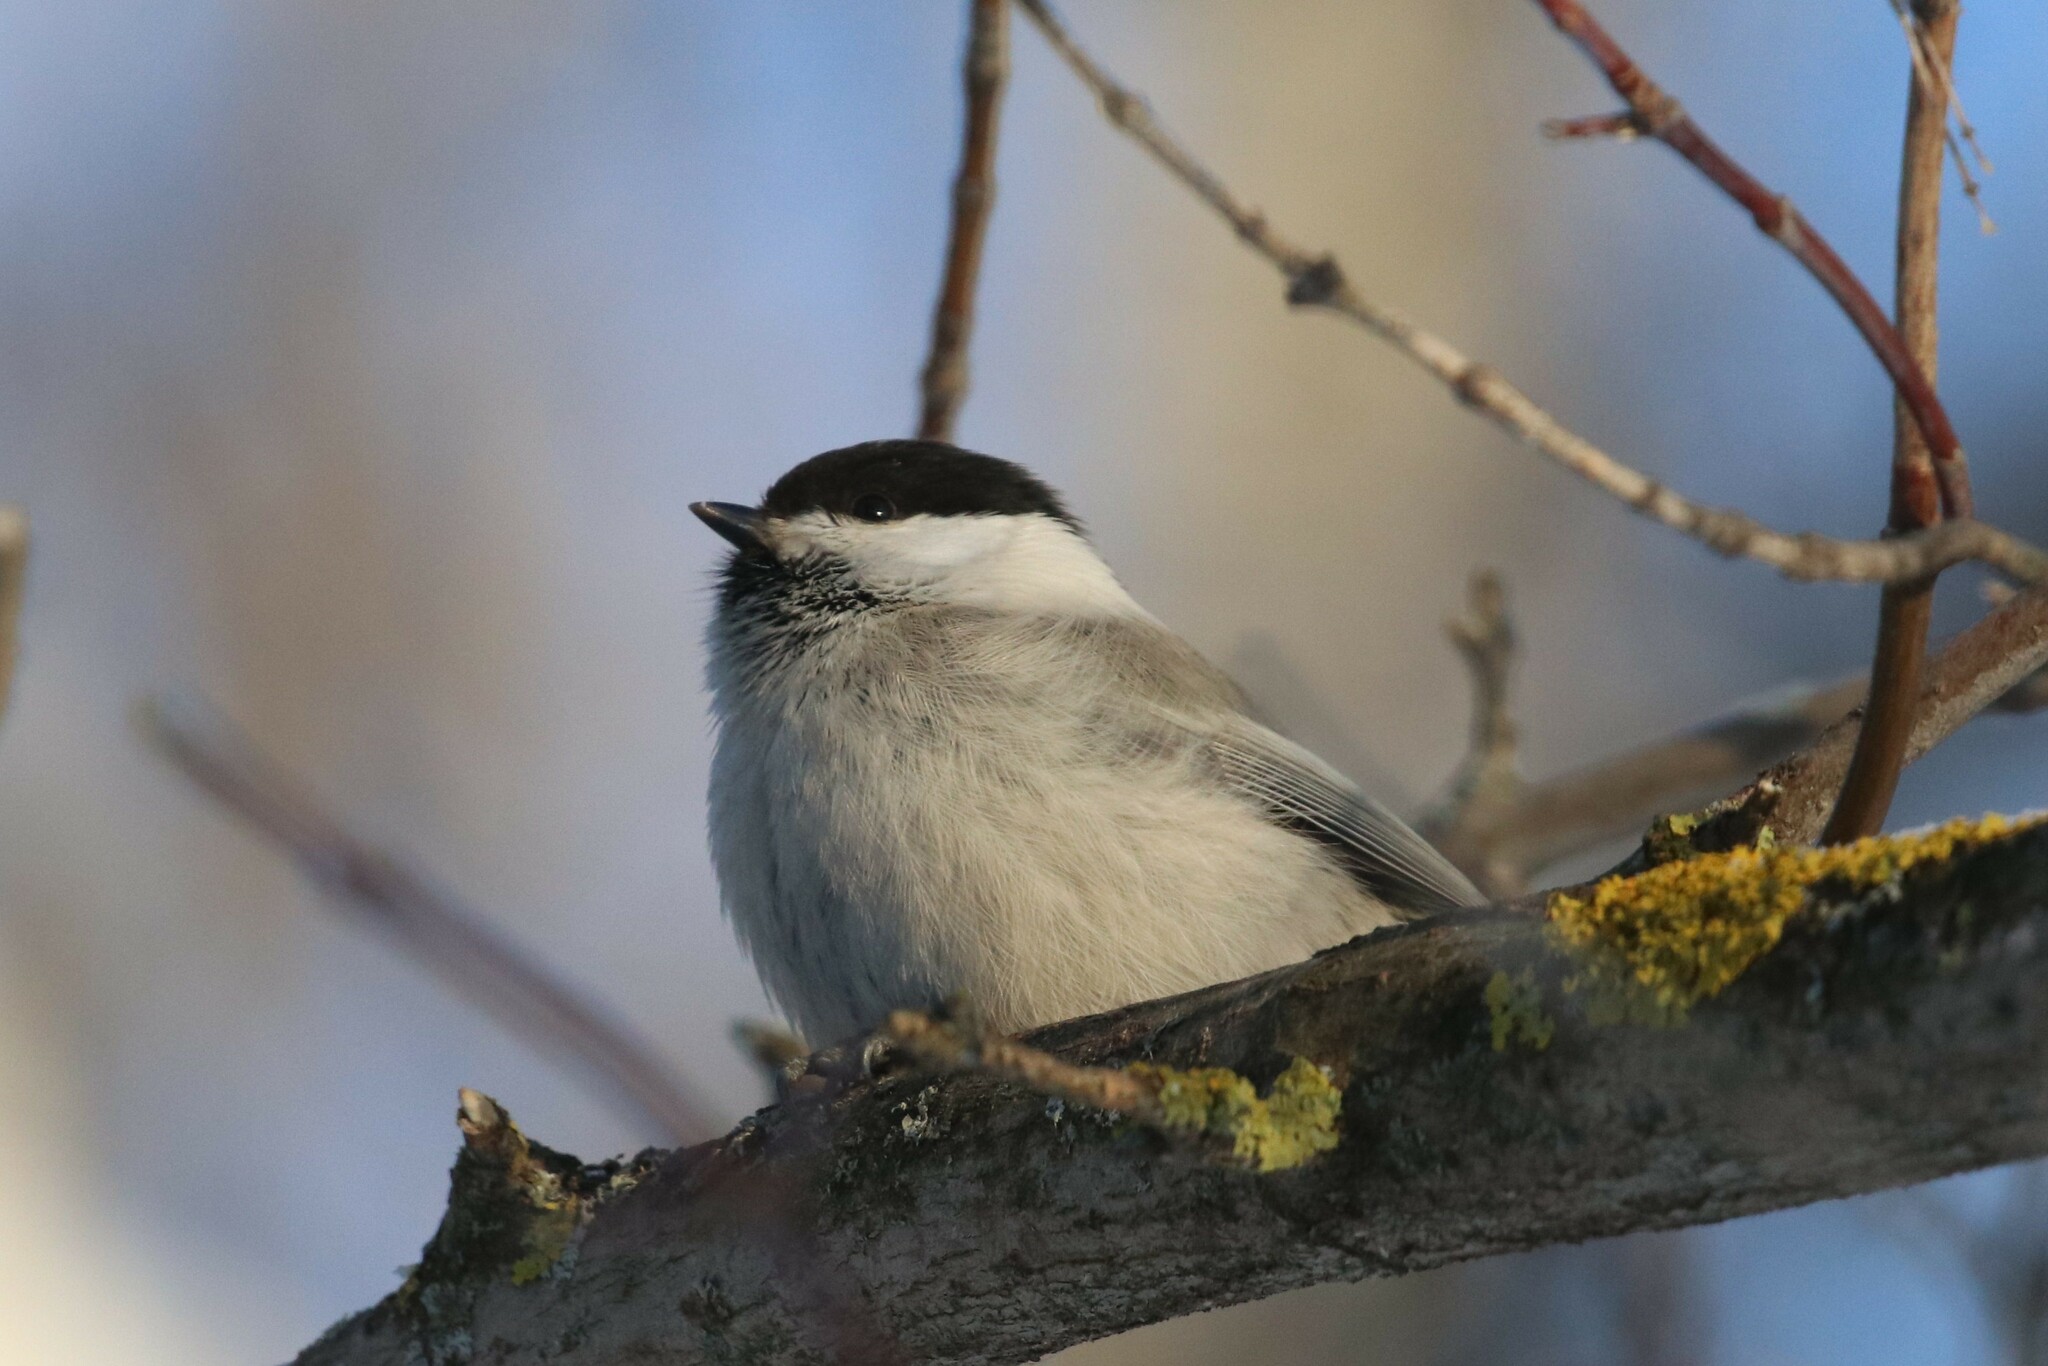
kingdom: Animalia
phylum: Chordata
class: Aves
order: Passeriformes
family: Paridae
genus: Poecile
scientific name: Poecile montanus
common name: Willow tit
